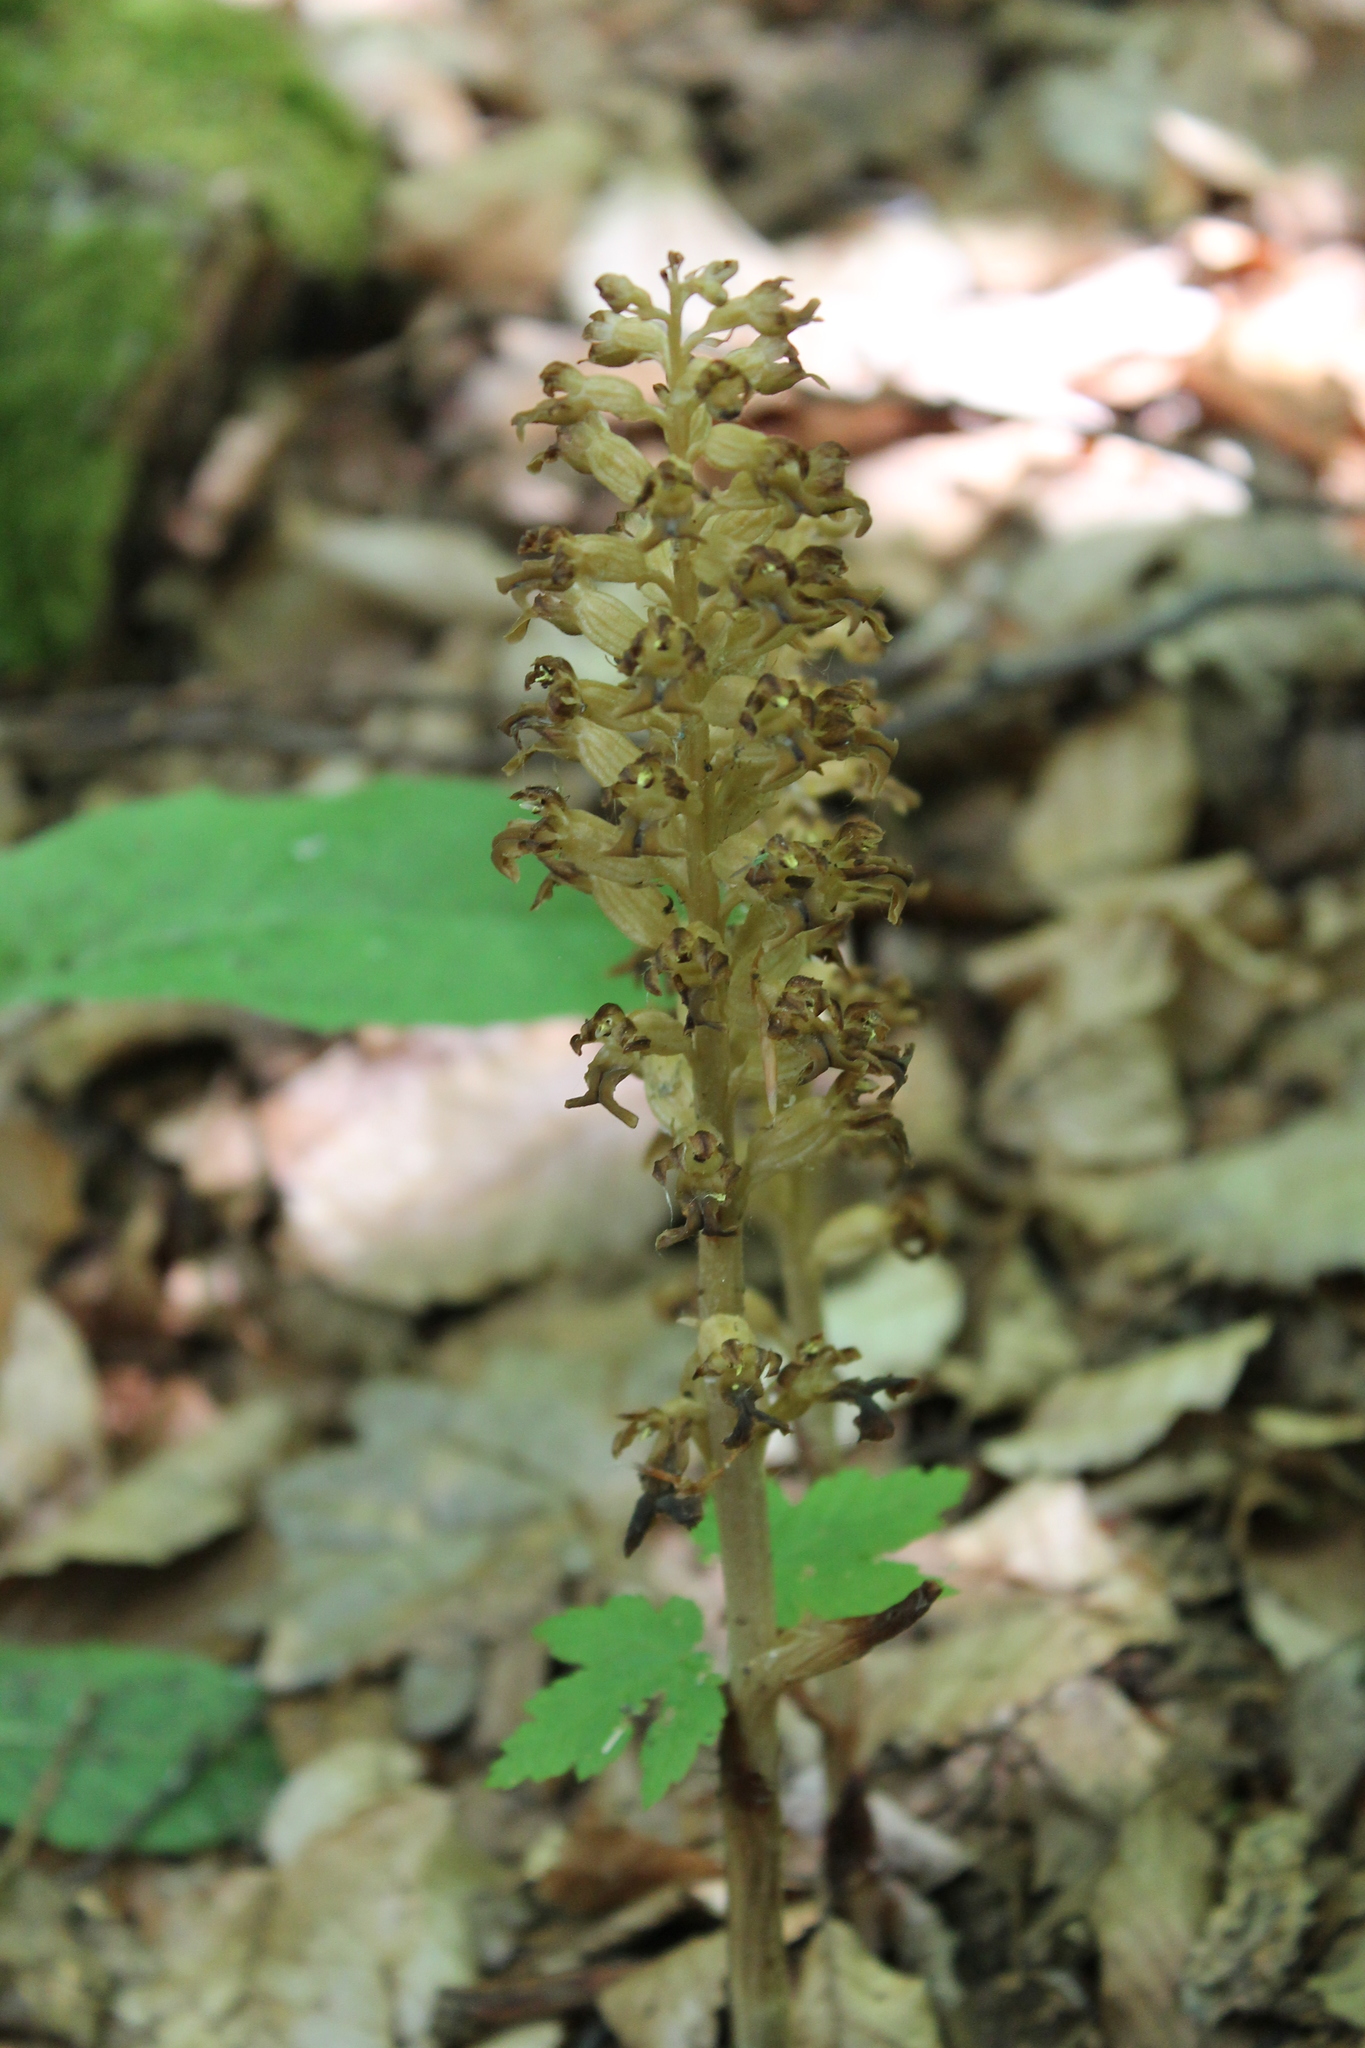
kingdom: Plantae
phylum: Tracheophyta
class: Liliopsida
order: Asparagales
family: Orchidaceae
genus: Neottia
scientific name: Neottia nidus-avis
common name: Bird's-nest orchid
